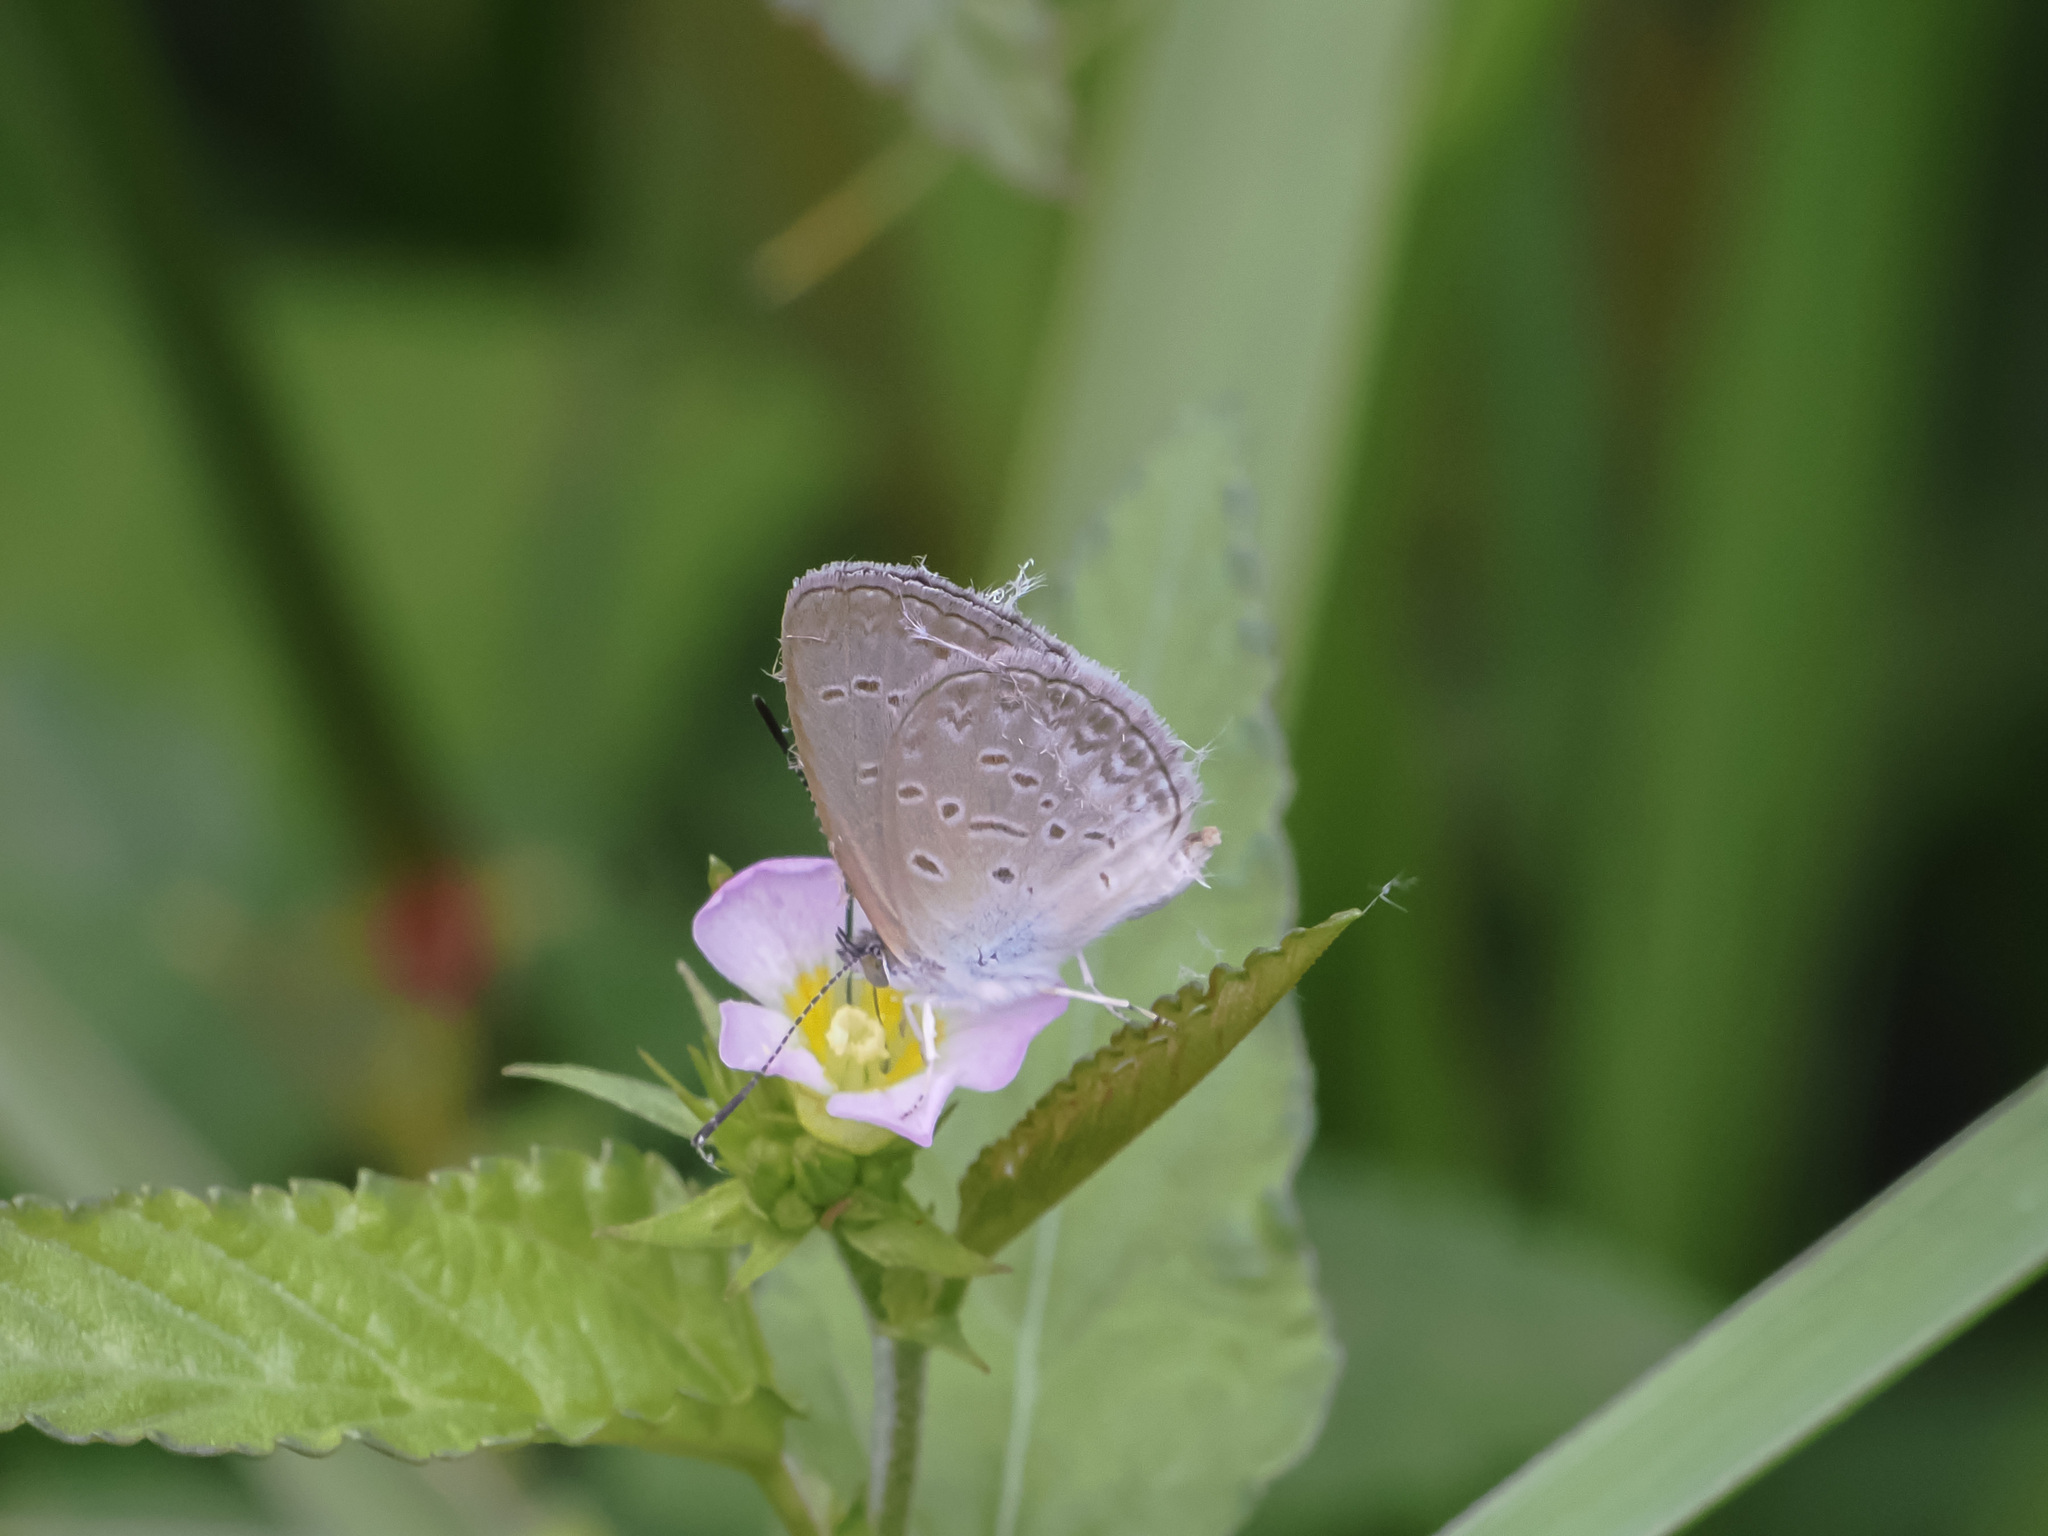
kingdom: Animalia
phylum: Arthropoda
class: Insecta
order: Lepidoptera
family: Lycaenidae
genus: Zizina
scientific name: Zizina otis
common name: Lesser grass blue
